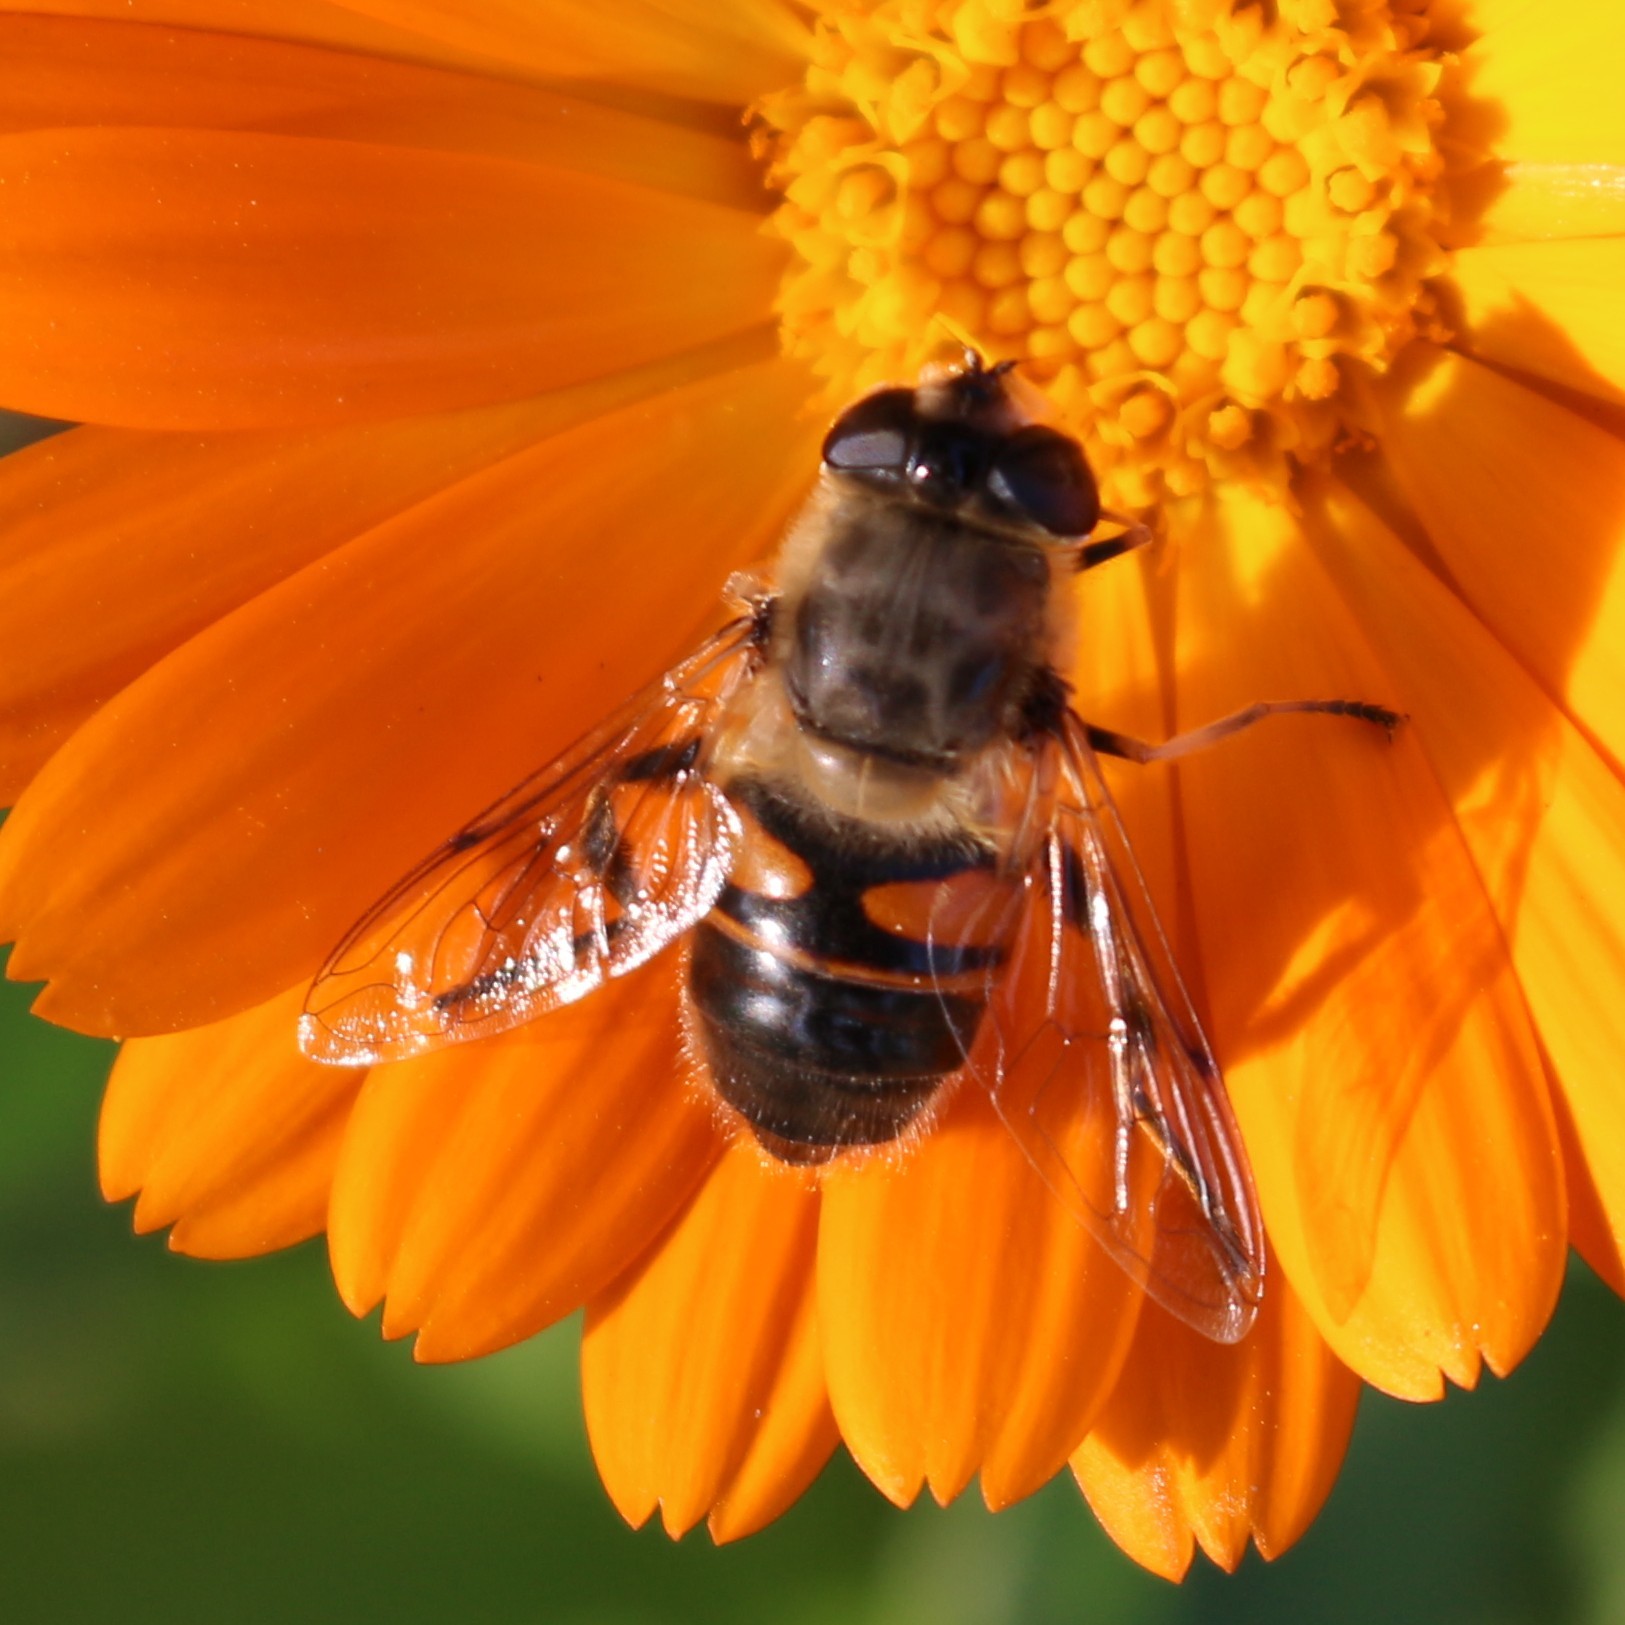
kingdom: Animalia
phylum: Arthropoda
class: Insecta
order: Diptera
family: Syrphidae
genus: Eristalis
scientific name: Eristalis tenax
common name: Drone fly
